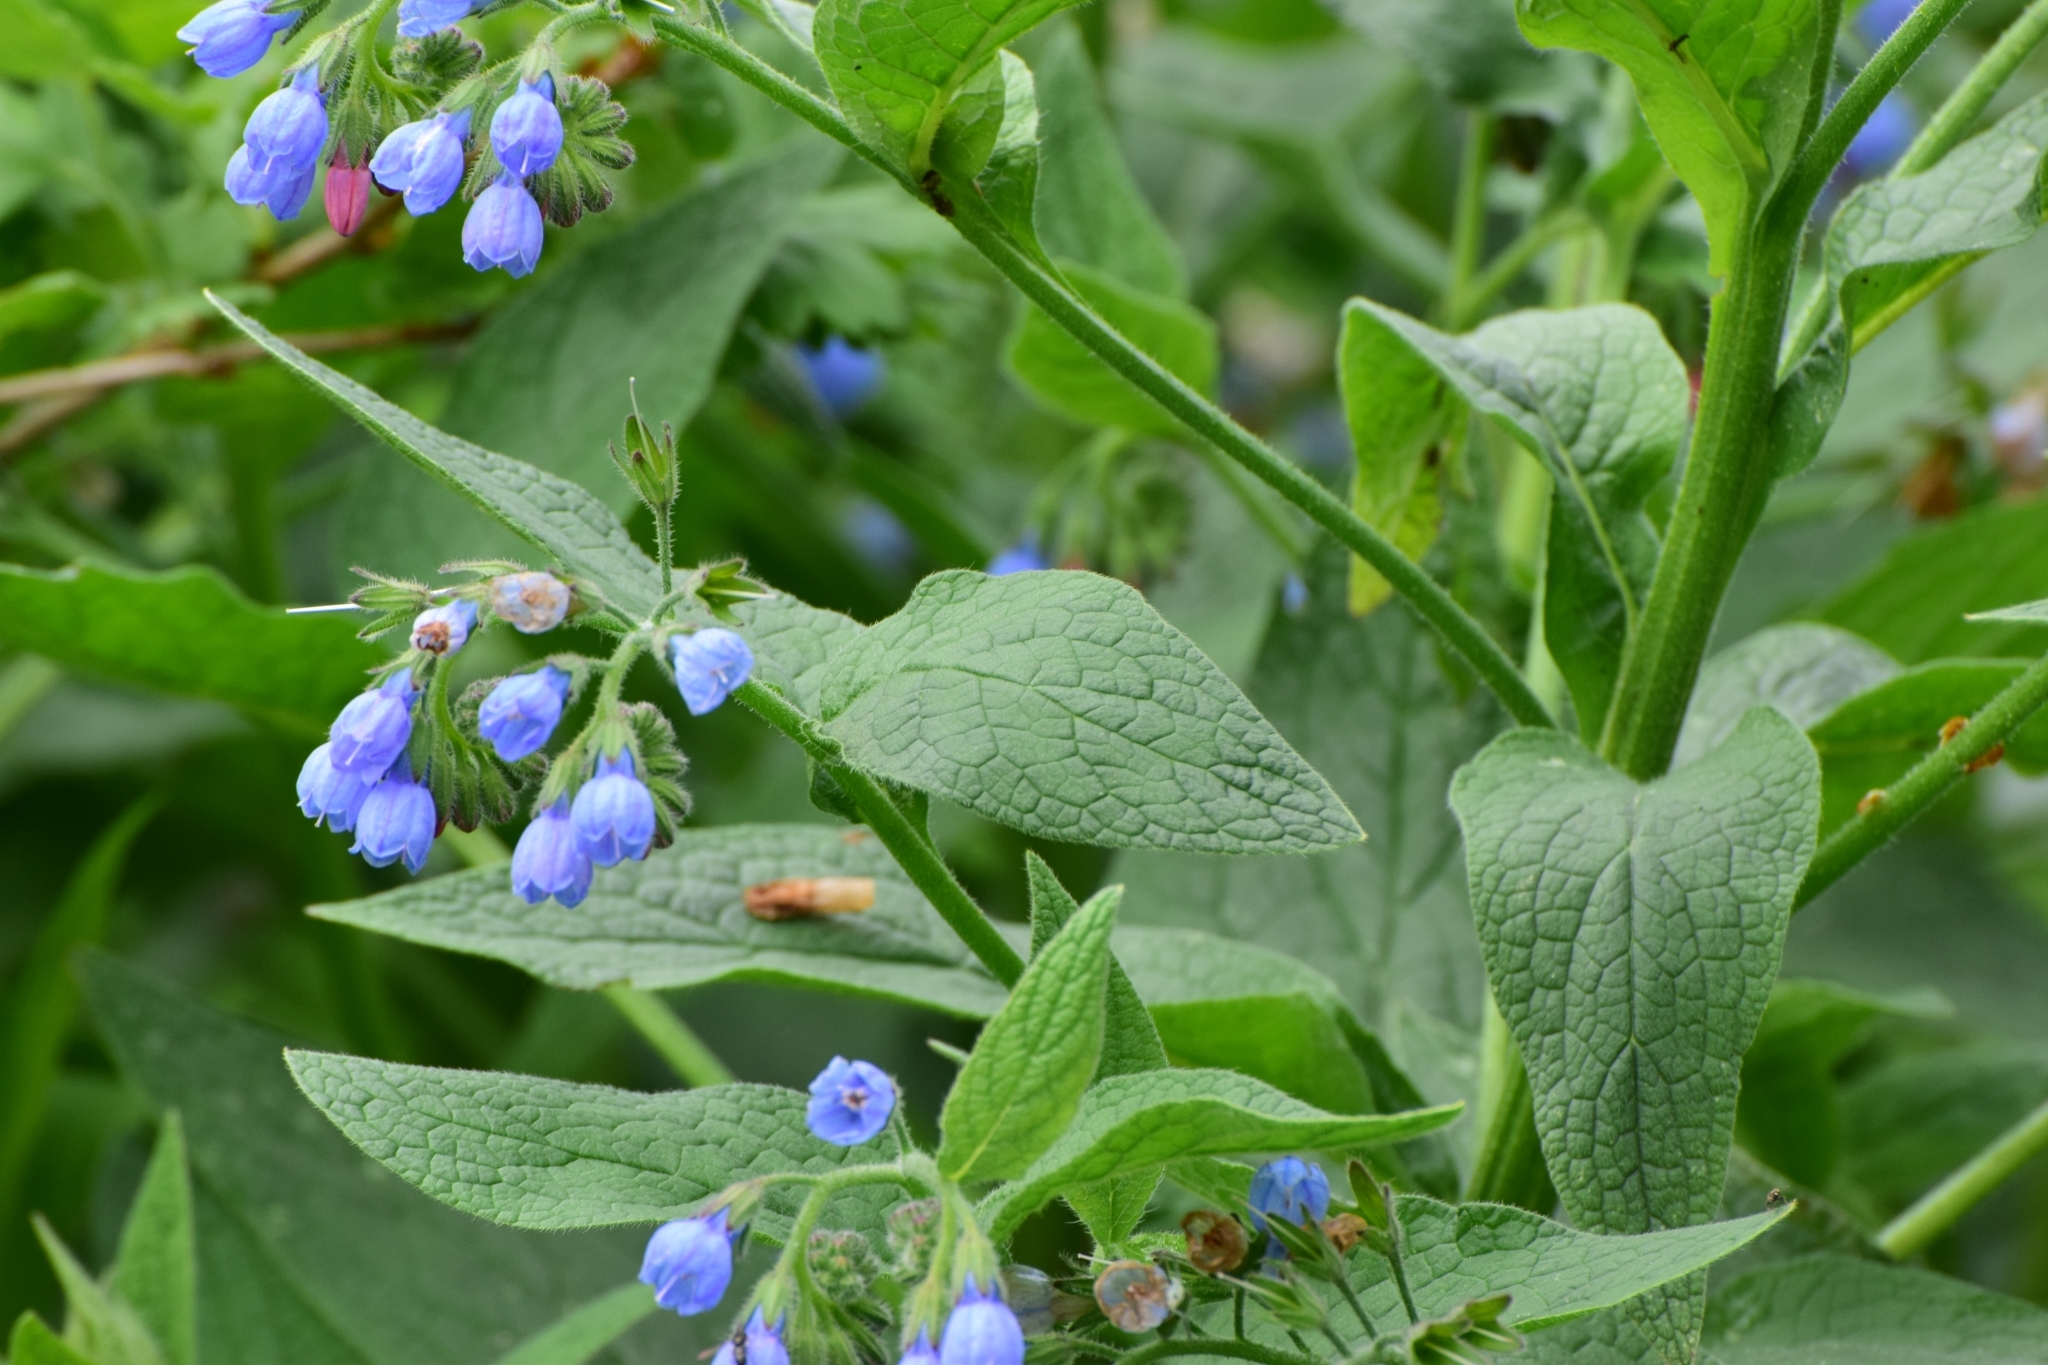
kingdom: Plantae
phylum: Tracheophyta
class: Magnoliopsida
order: Boraginales
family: Boraginaceae
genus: Symphytum
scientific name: Symphytum caucasicum
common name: Caucasian comfrey
